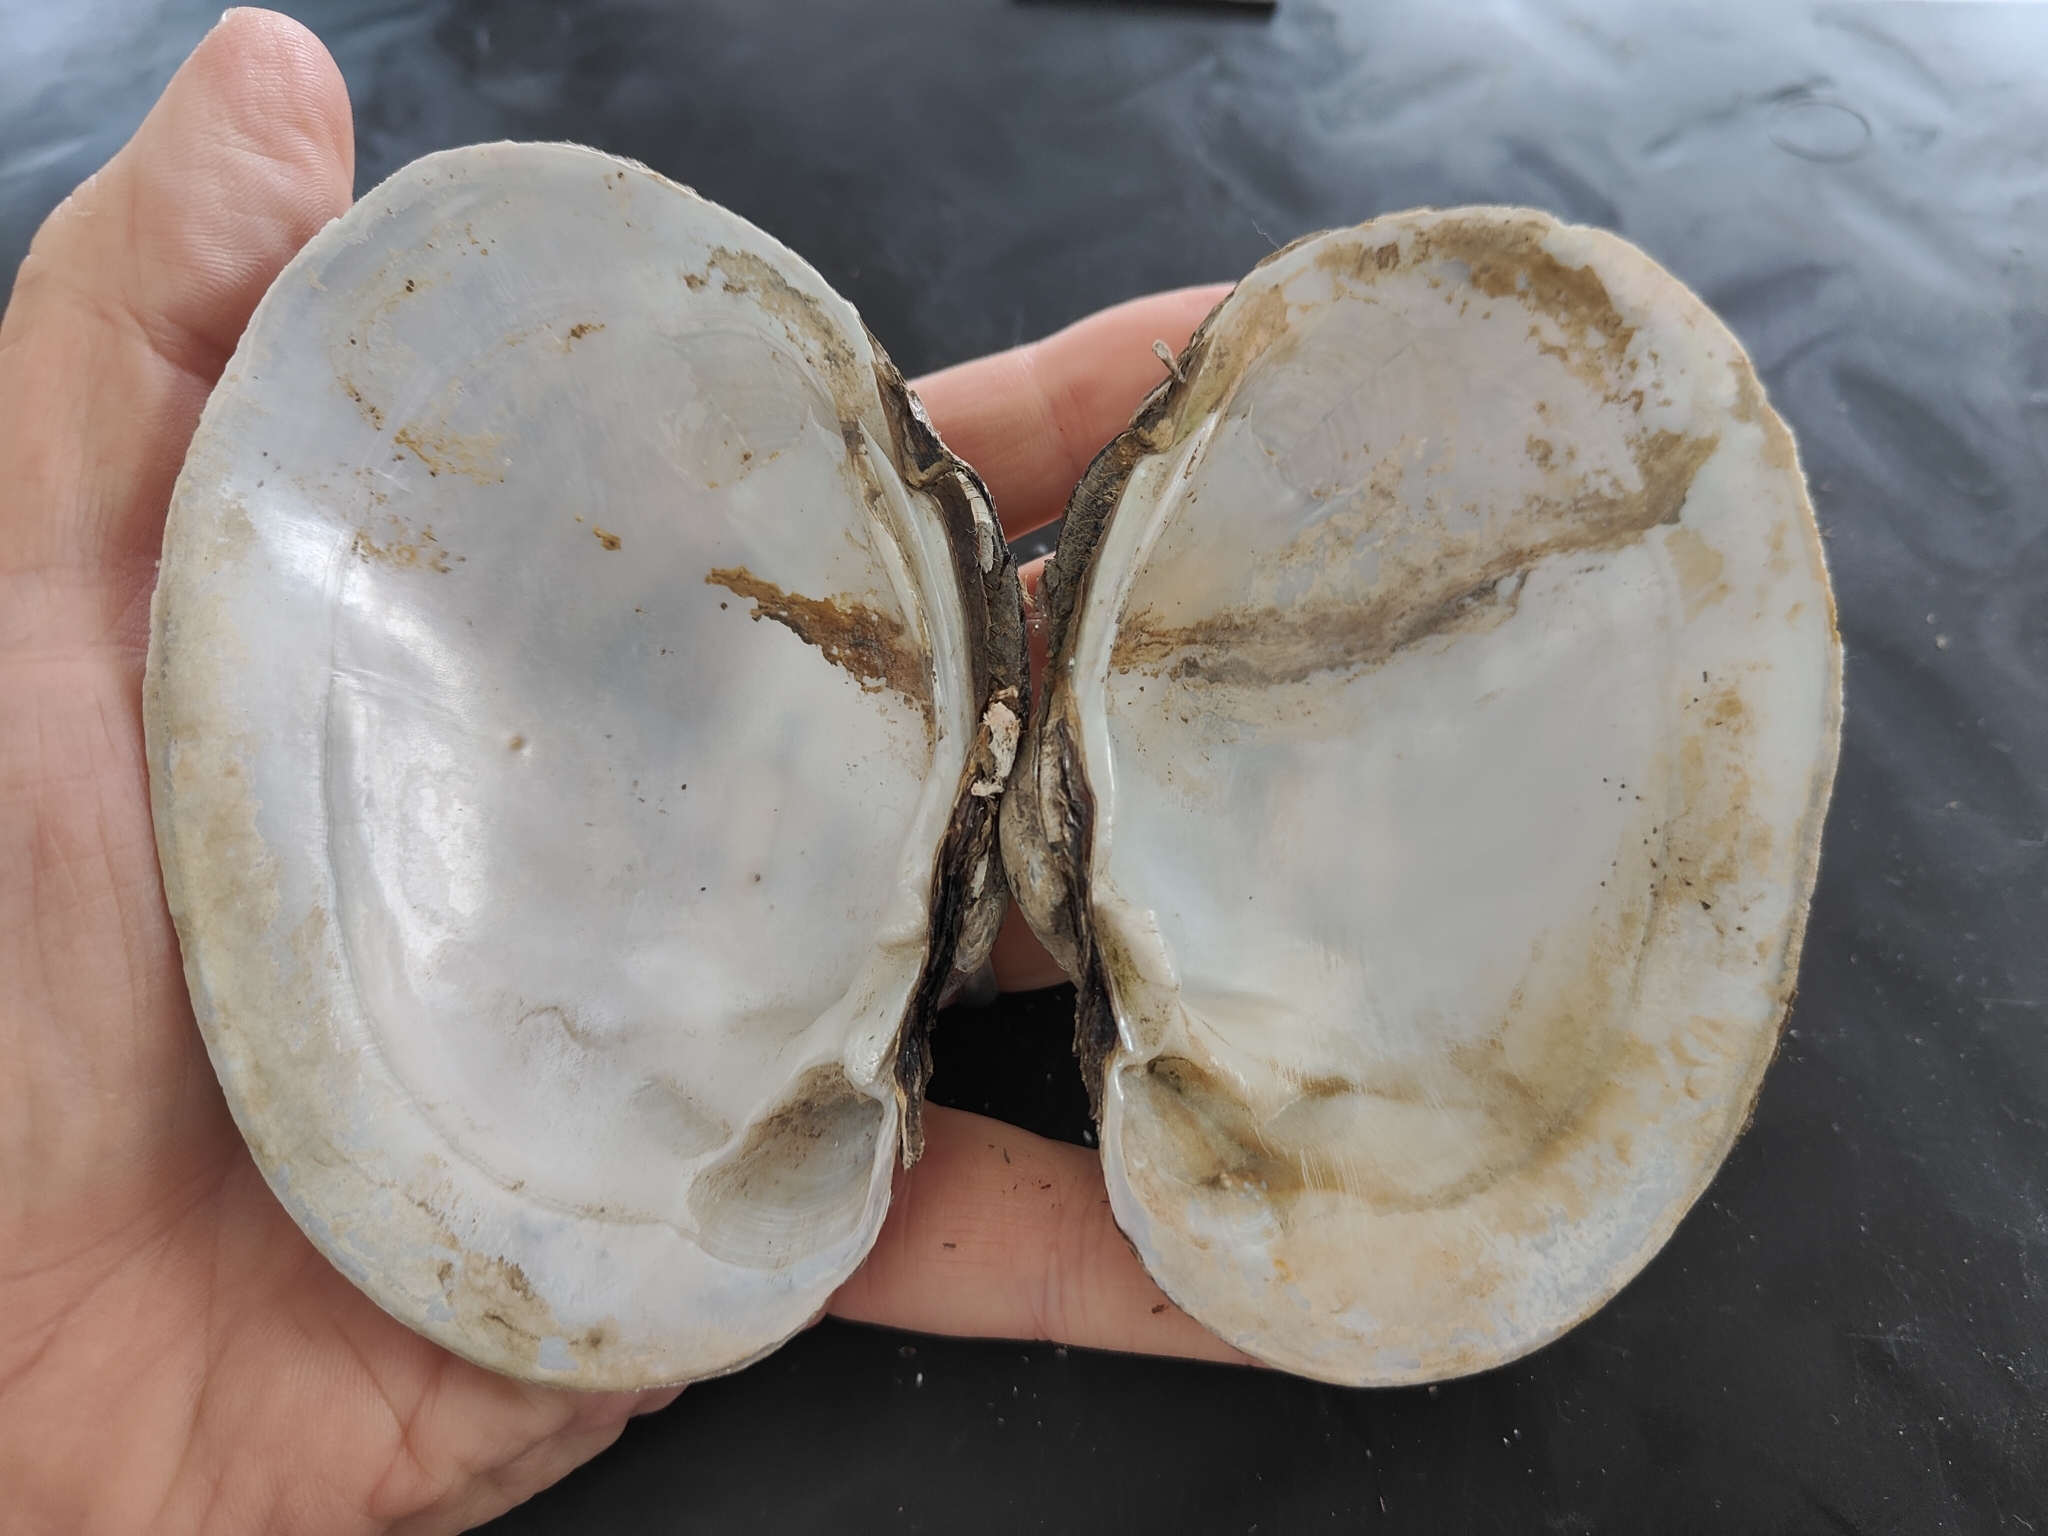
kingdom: Animalia
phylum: Mollusca
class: Bivalvia
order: Unionida
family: Unionidae
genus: Lampsilis
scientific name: Lampsilis cardium
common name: Plain pocketbook
